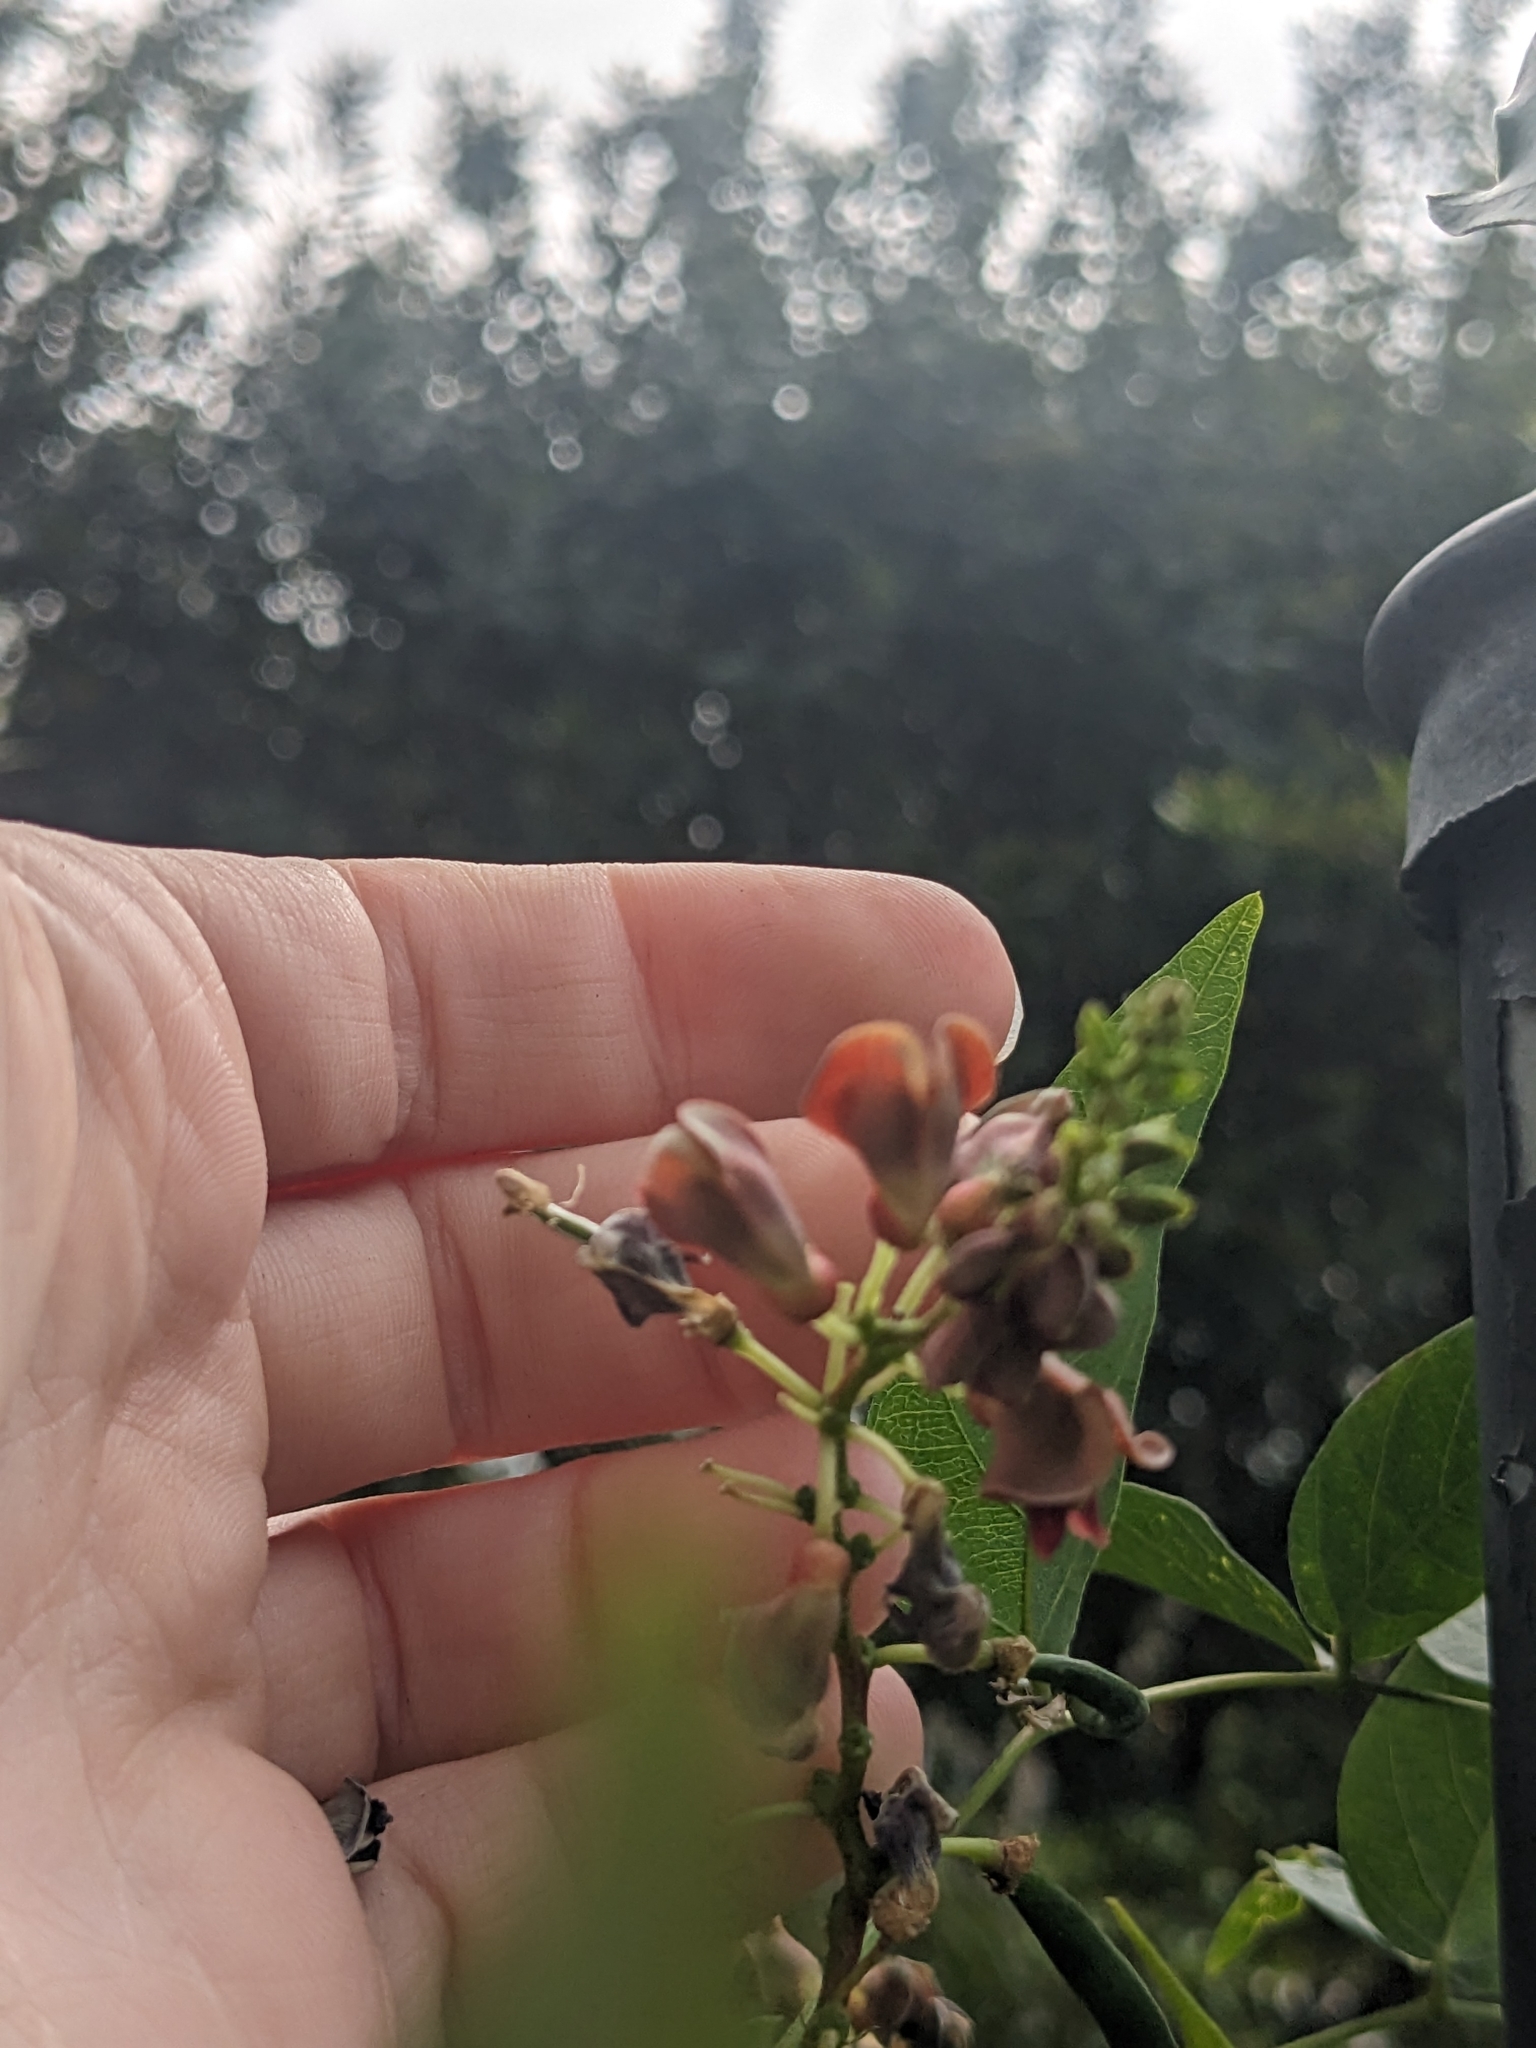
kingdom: Plantae
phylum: Tracheophyta
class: Magnoliopsida
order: Fabales
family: Fabaceae
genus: Apios
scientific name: Apios americana
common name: American potato-bean
